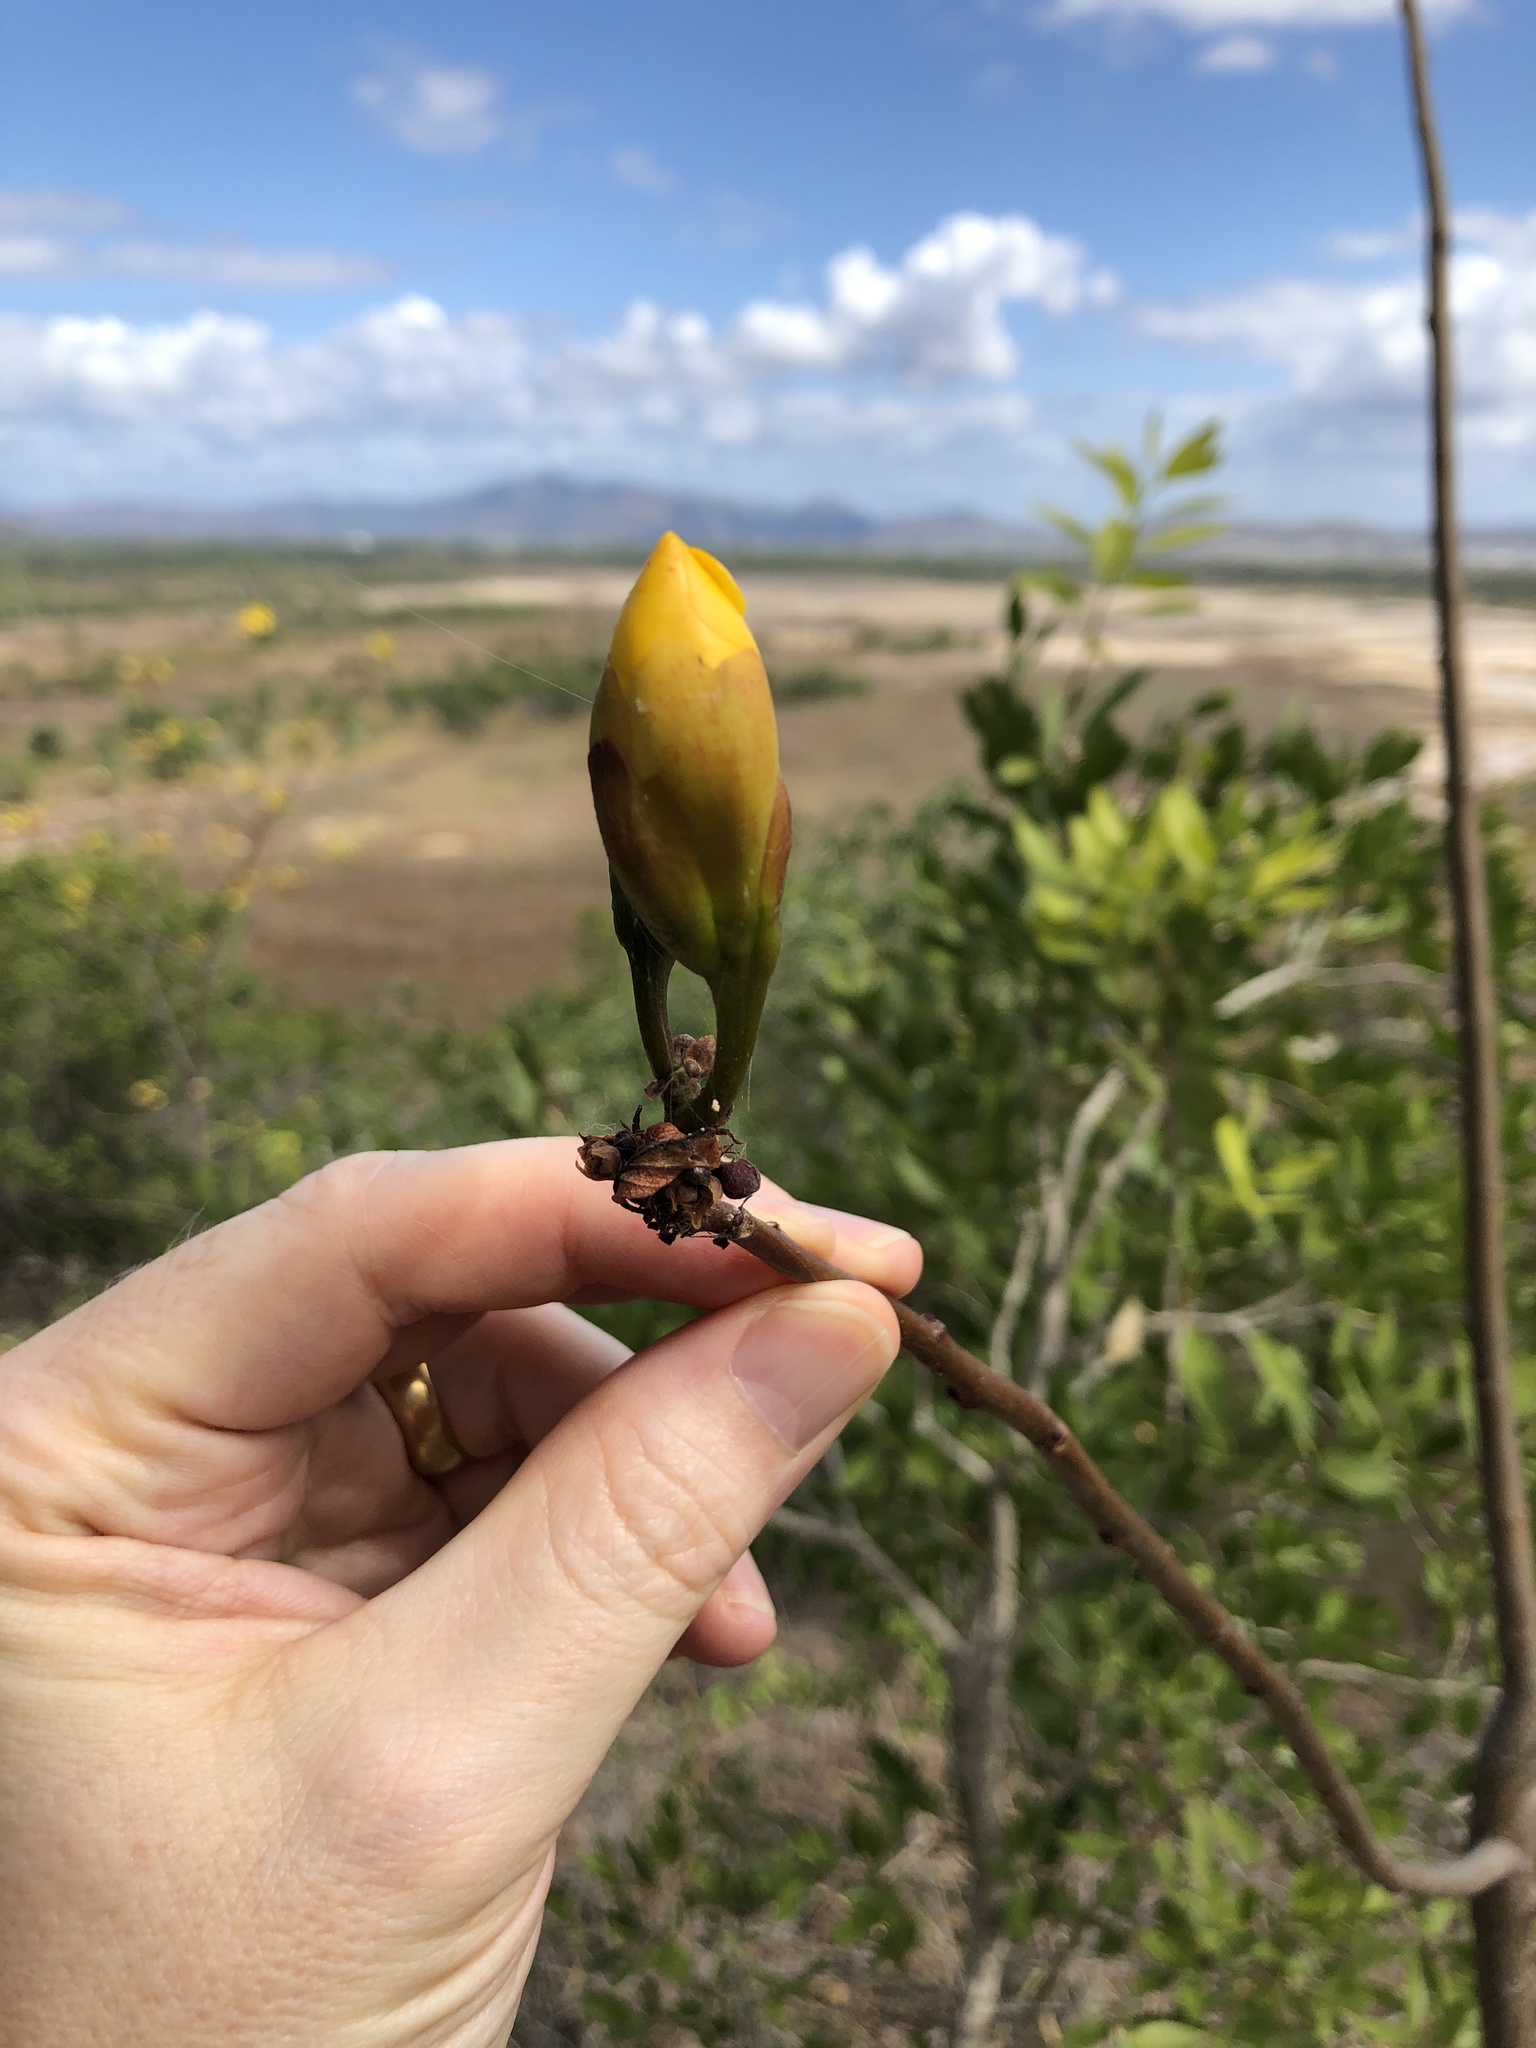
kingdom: Plantae
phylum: Tracheophyta
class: Magnoliopsida
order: Malvales
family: Cochlospermaceae
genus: Cochlospermum
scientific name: Cochlospermum gillivraei
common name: Cottontree
